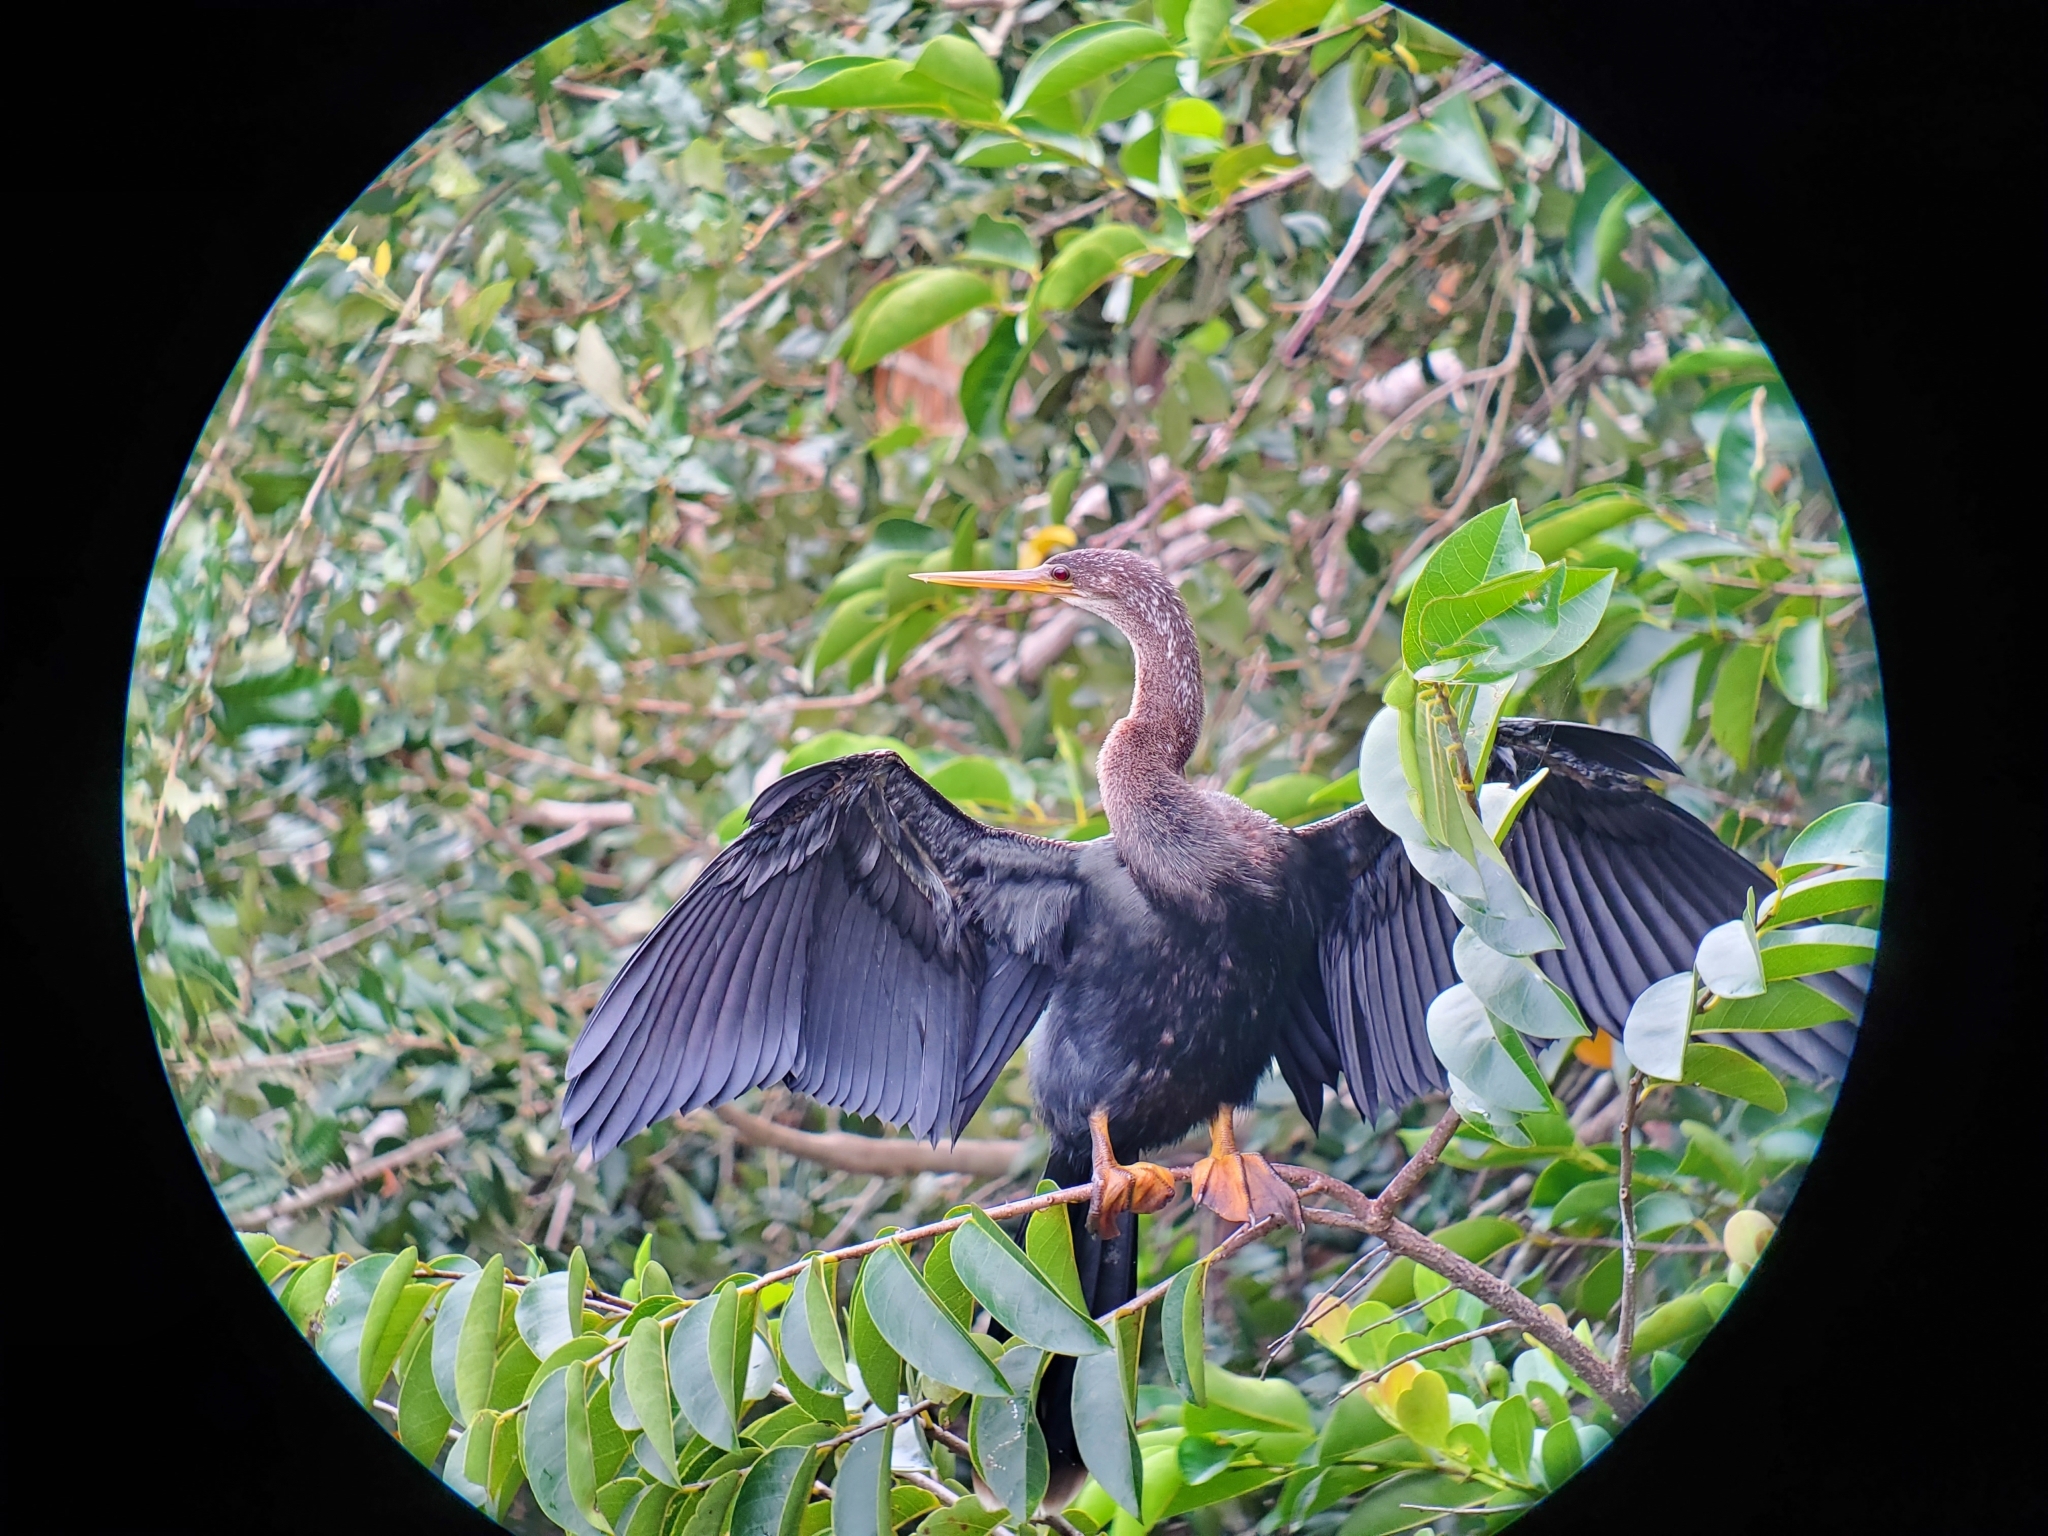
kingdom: Animalia
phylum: Chordata
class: Aves
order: Suliformes
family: Anhingidae
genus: Anhinga
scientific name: Anhinga anhinga
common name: Anhinga
